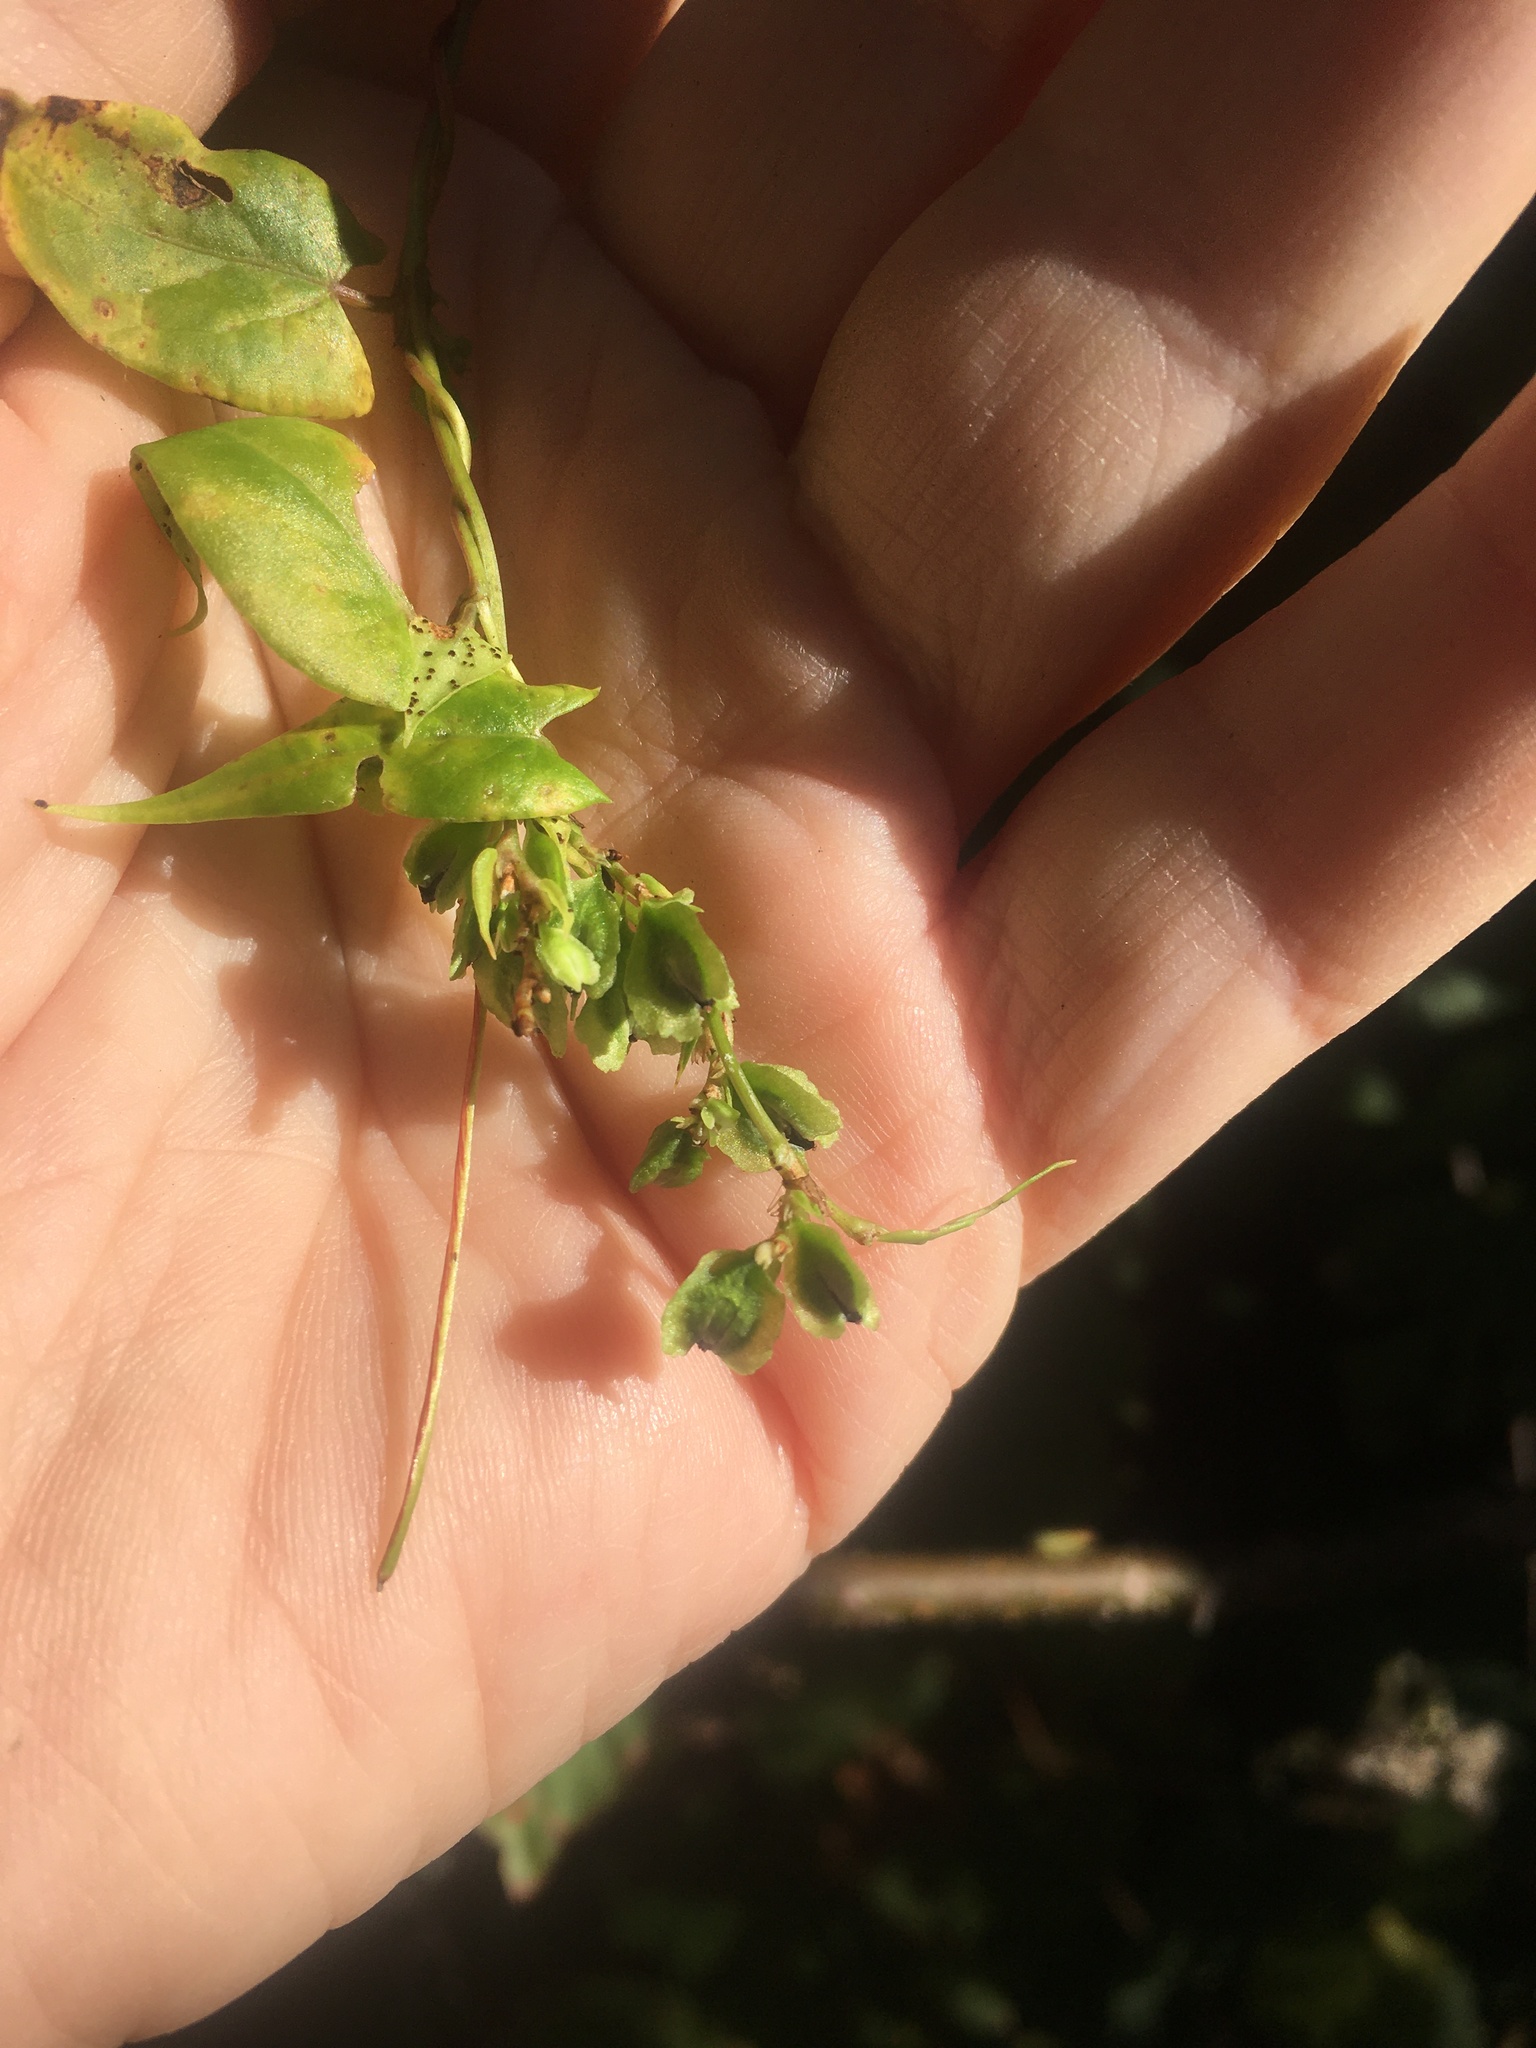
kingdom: Plantae
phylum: Tracheophyta
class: Magnoliopsida
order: Caryophyllales
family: Polygonaceae
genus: Fallopia
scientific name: Fallopia scandens
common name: Climbing false buckwheat
